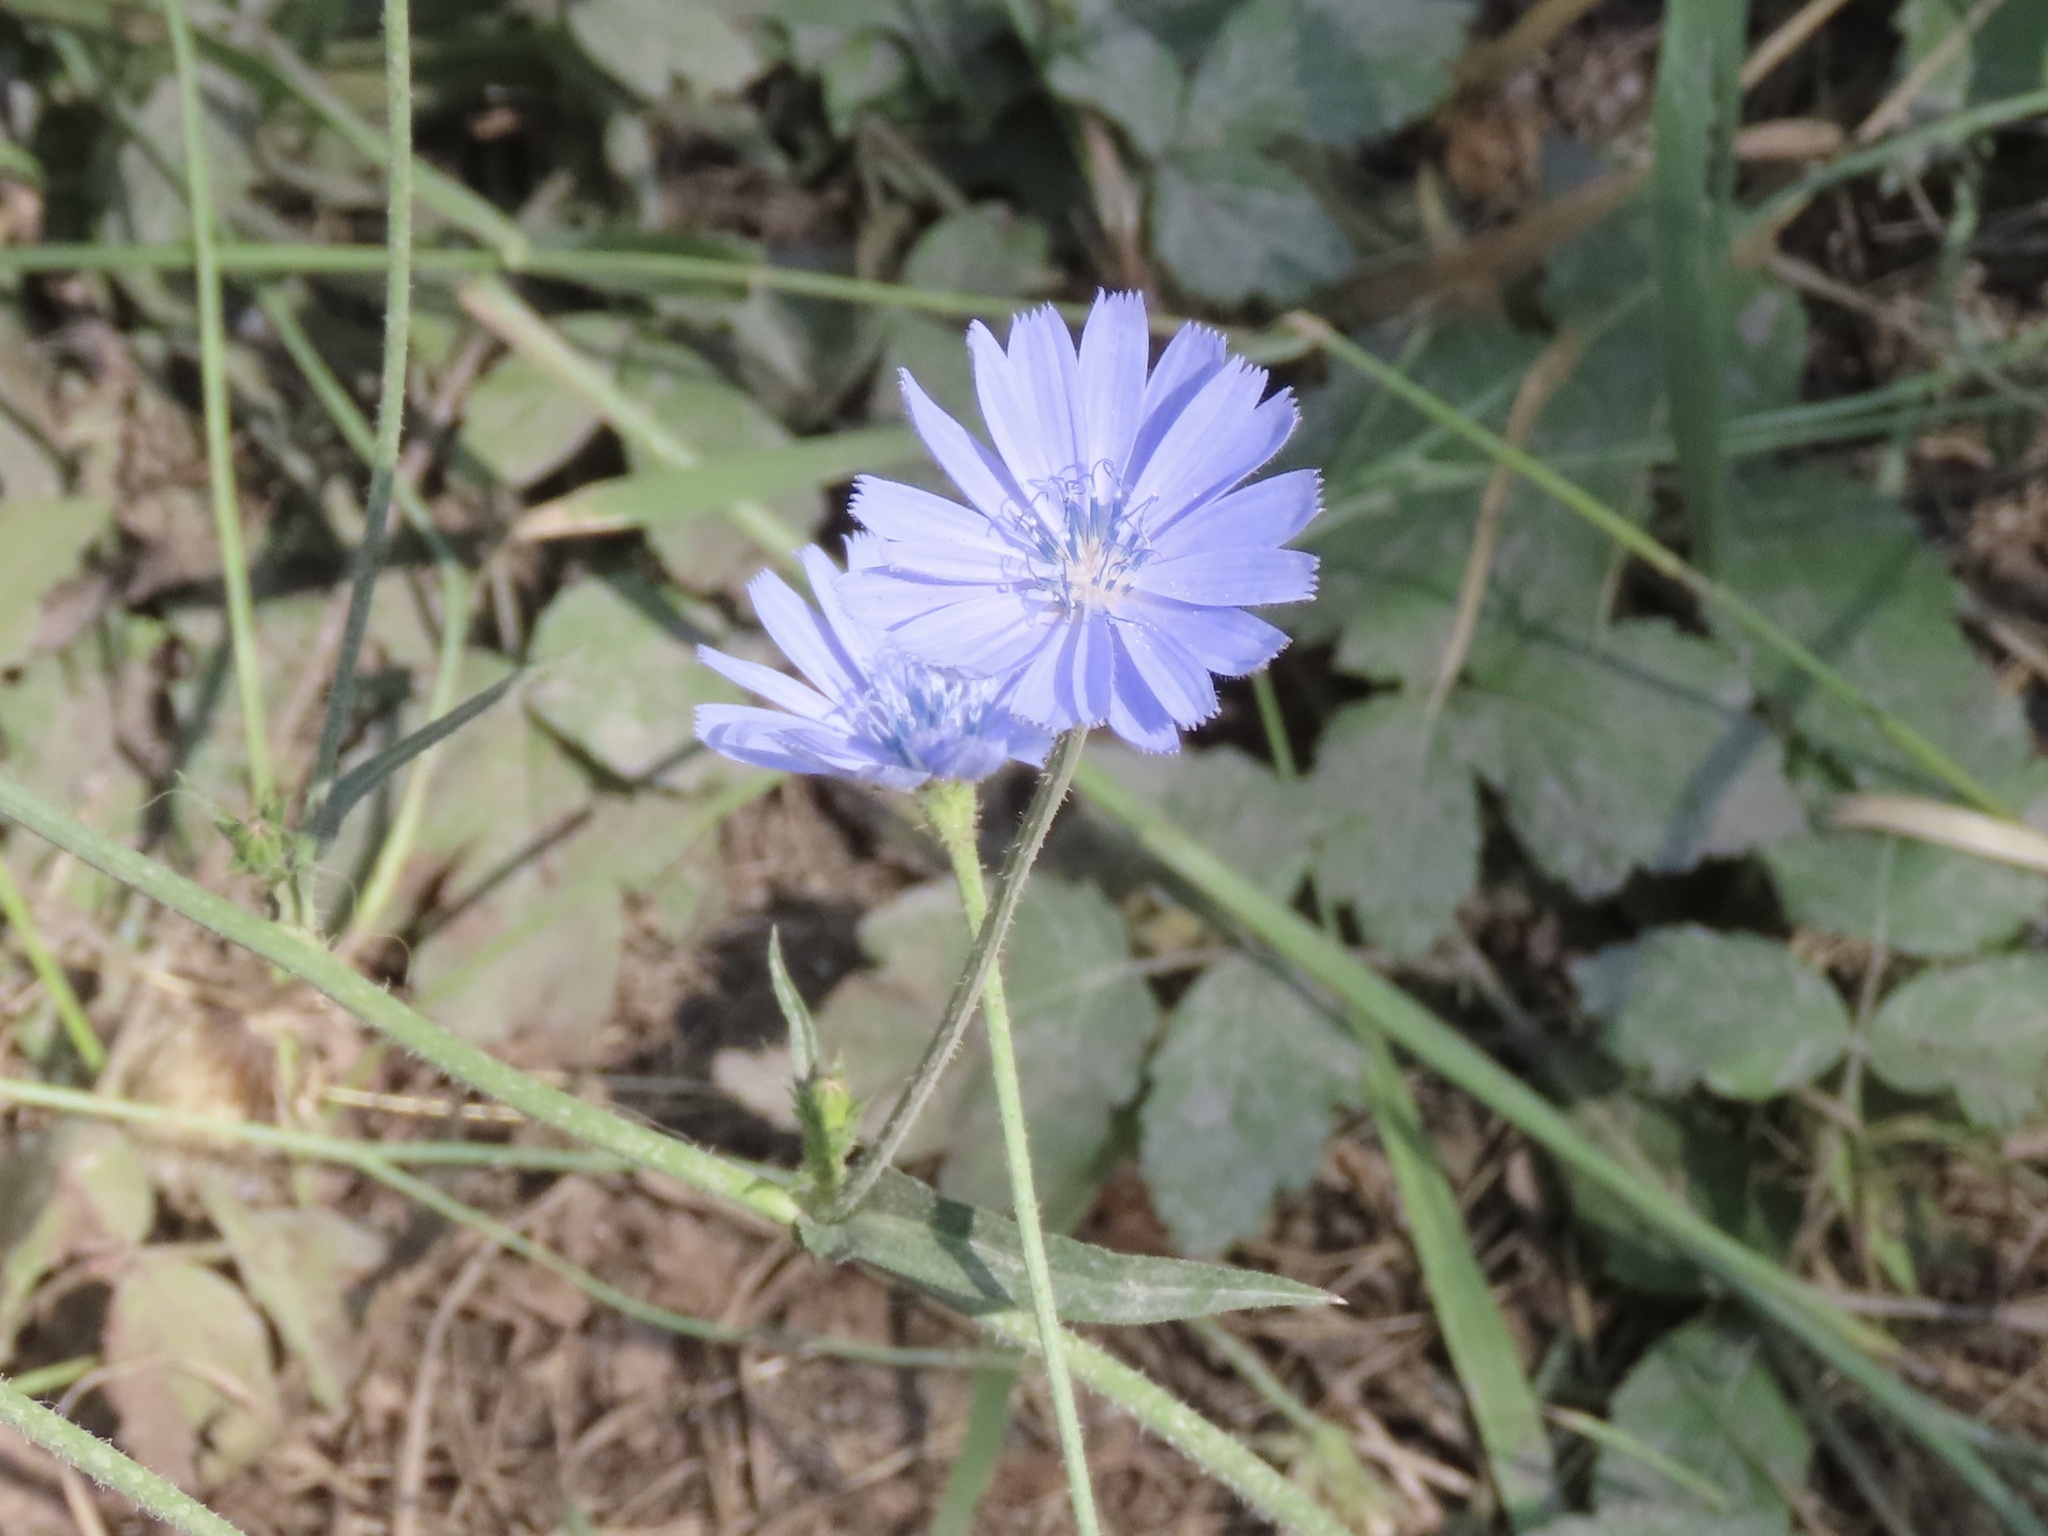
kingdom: Plantae
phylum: Tracheophyta
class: Magnoliopsida
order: Asterales
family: Asteraceae
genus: Cichorium
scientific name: Cichorium intybus
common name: Chicory
